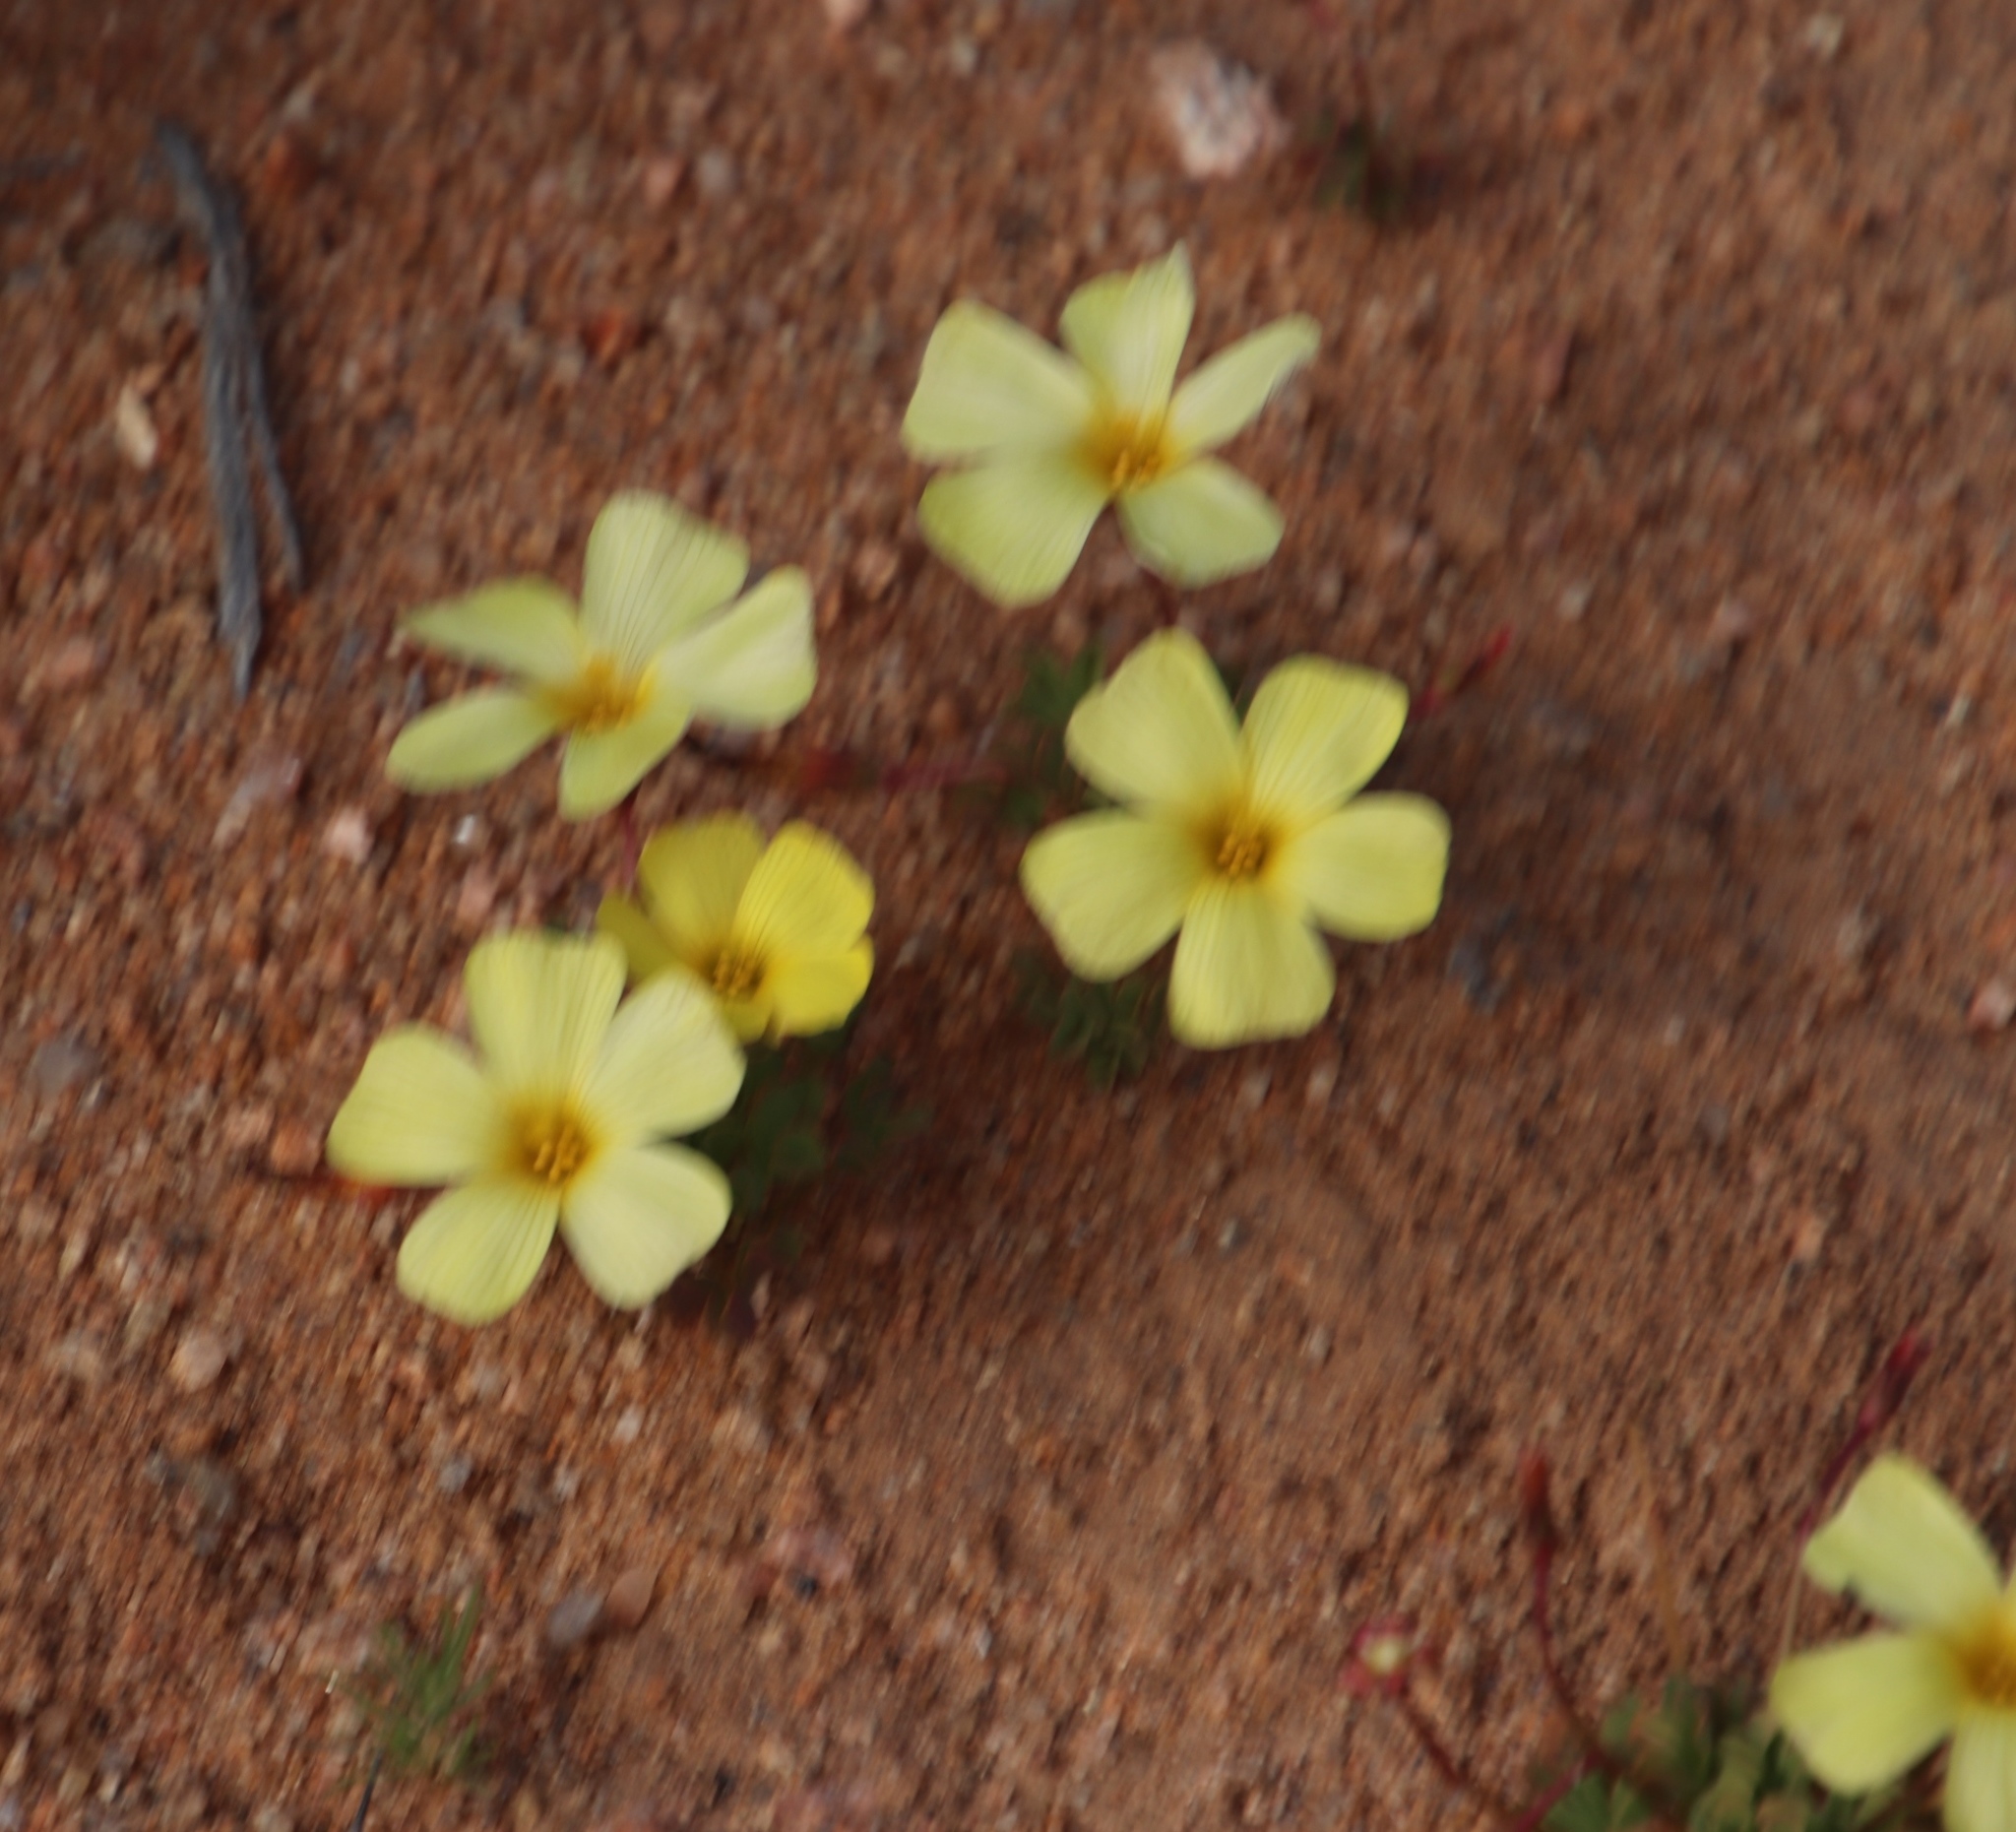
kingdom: Plantae
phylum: Tracheophyta
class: Magnoliopsida
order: Oxalidales
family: Oxalidaceae
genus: Oxalis
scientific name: Oxalis obtusa
